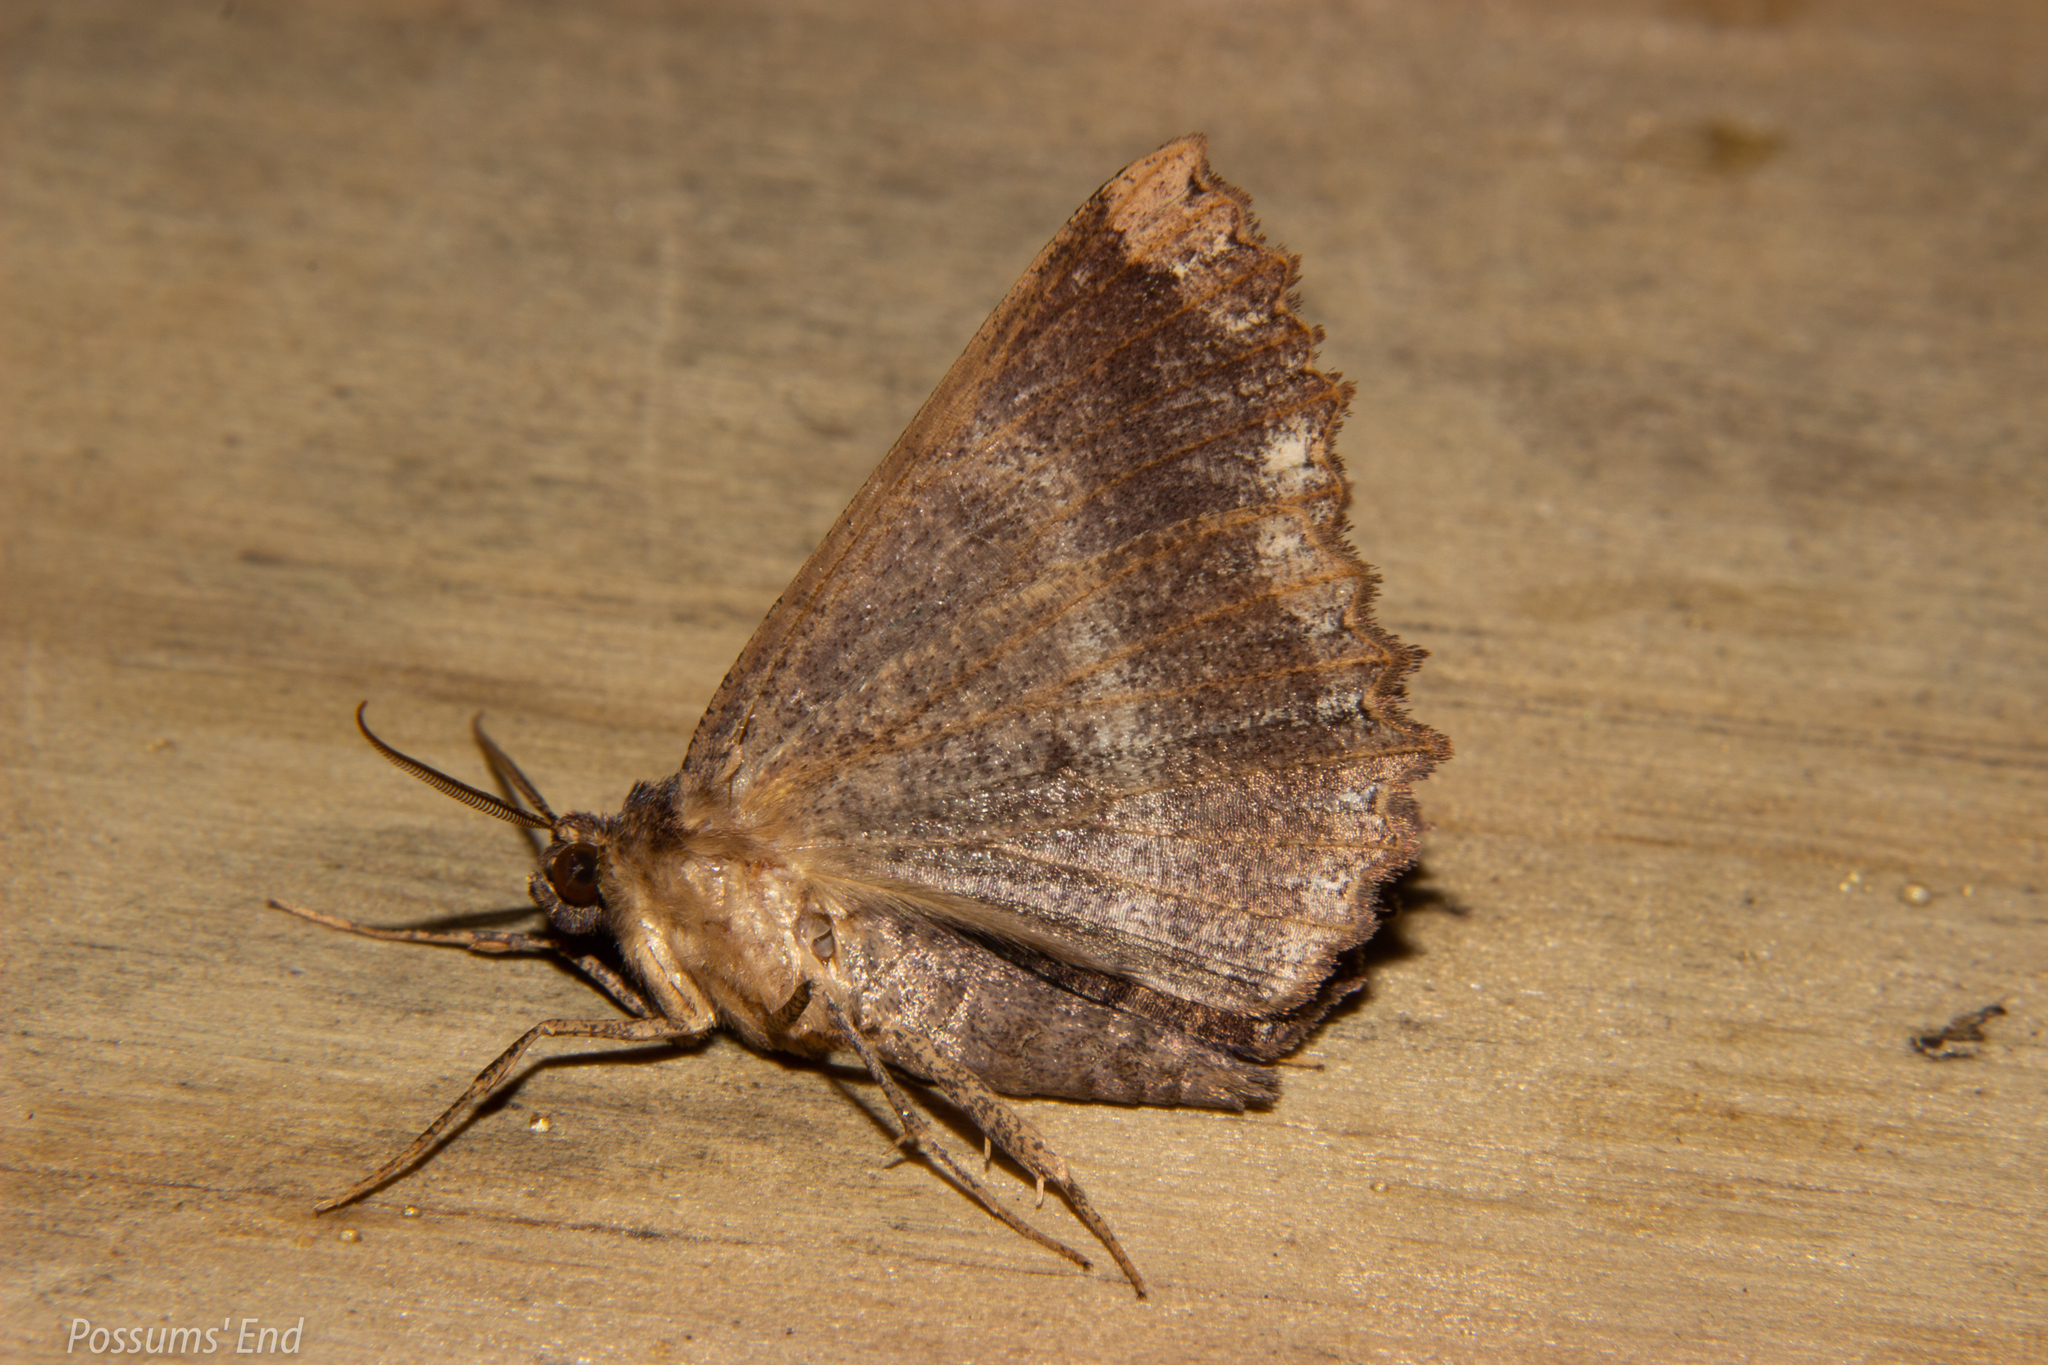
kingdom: Animalia
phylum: Arthropoda
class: Insecta
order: Lepidoptera
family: Geometridae
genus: Gellonia
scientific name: Gellonia dejectaria
